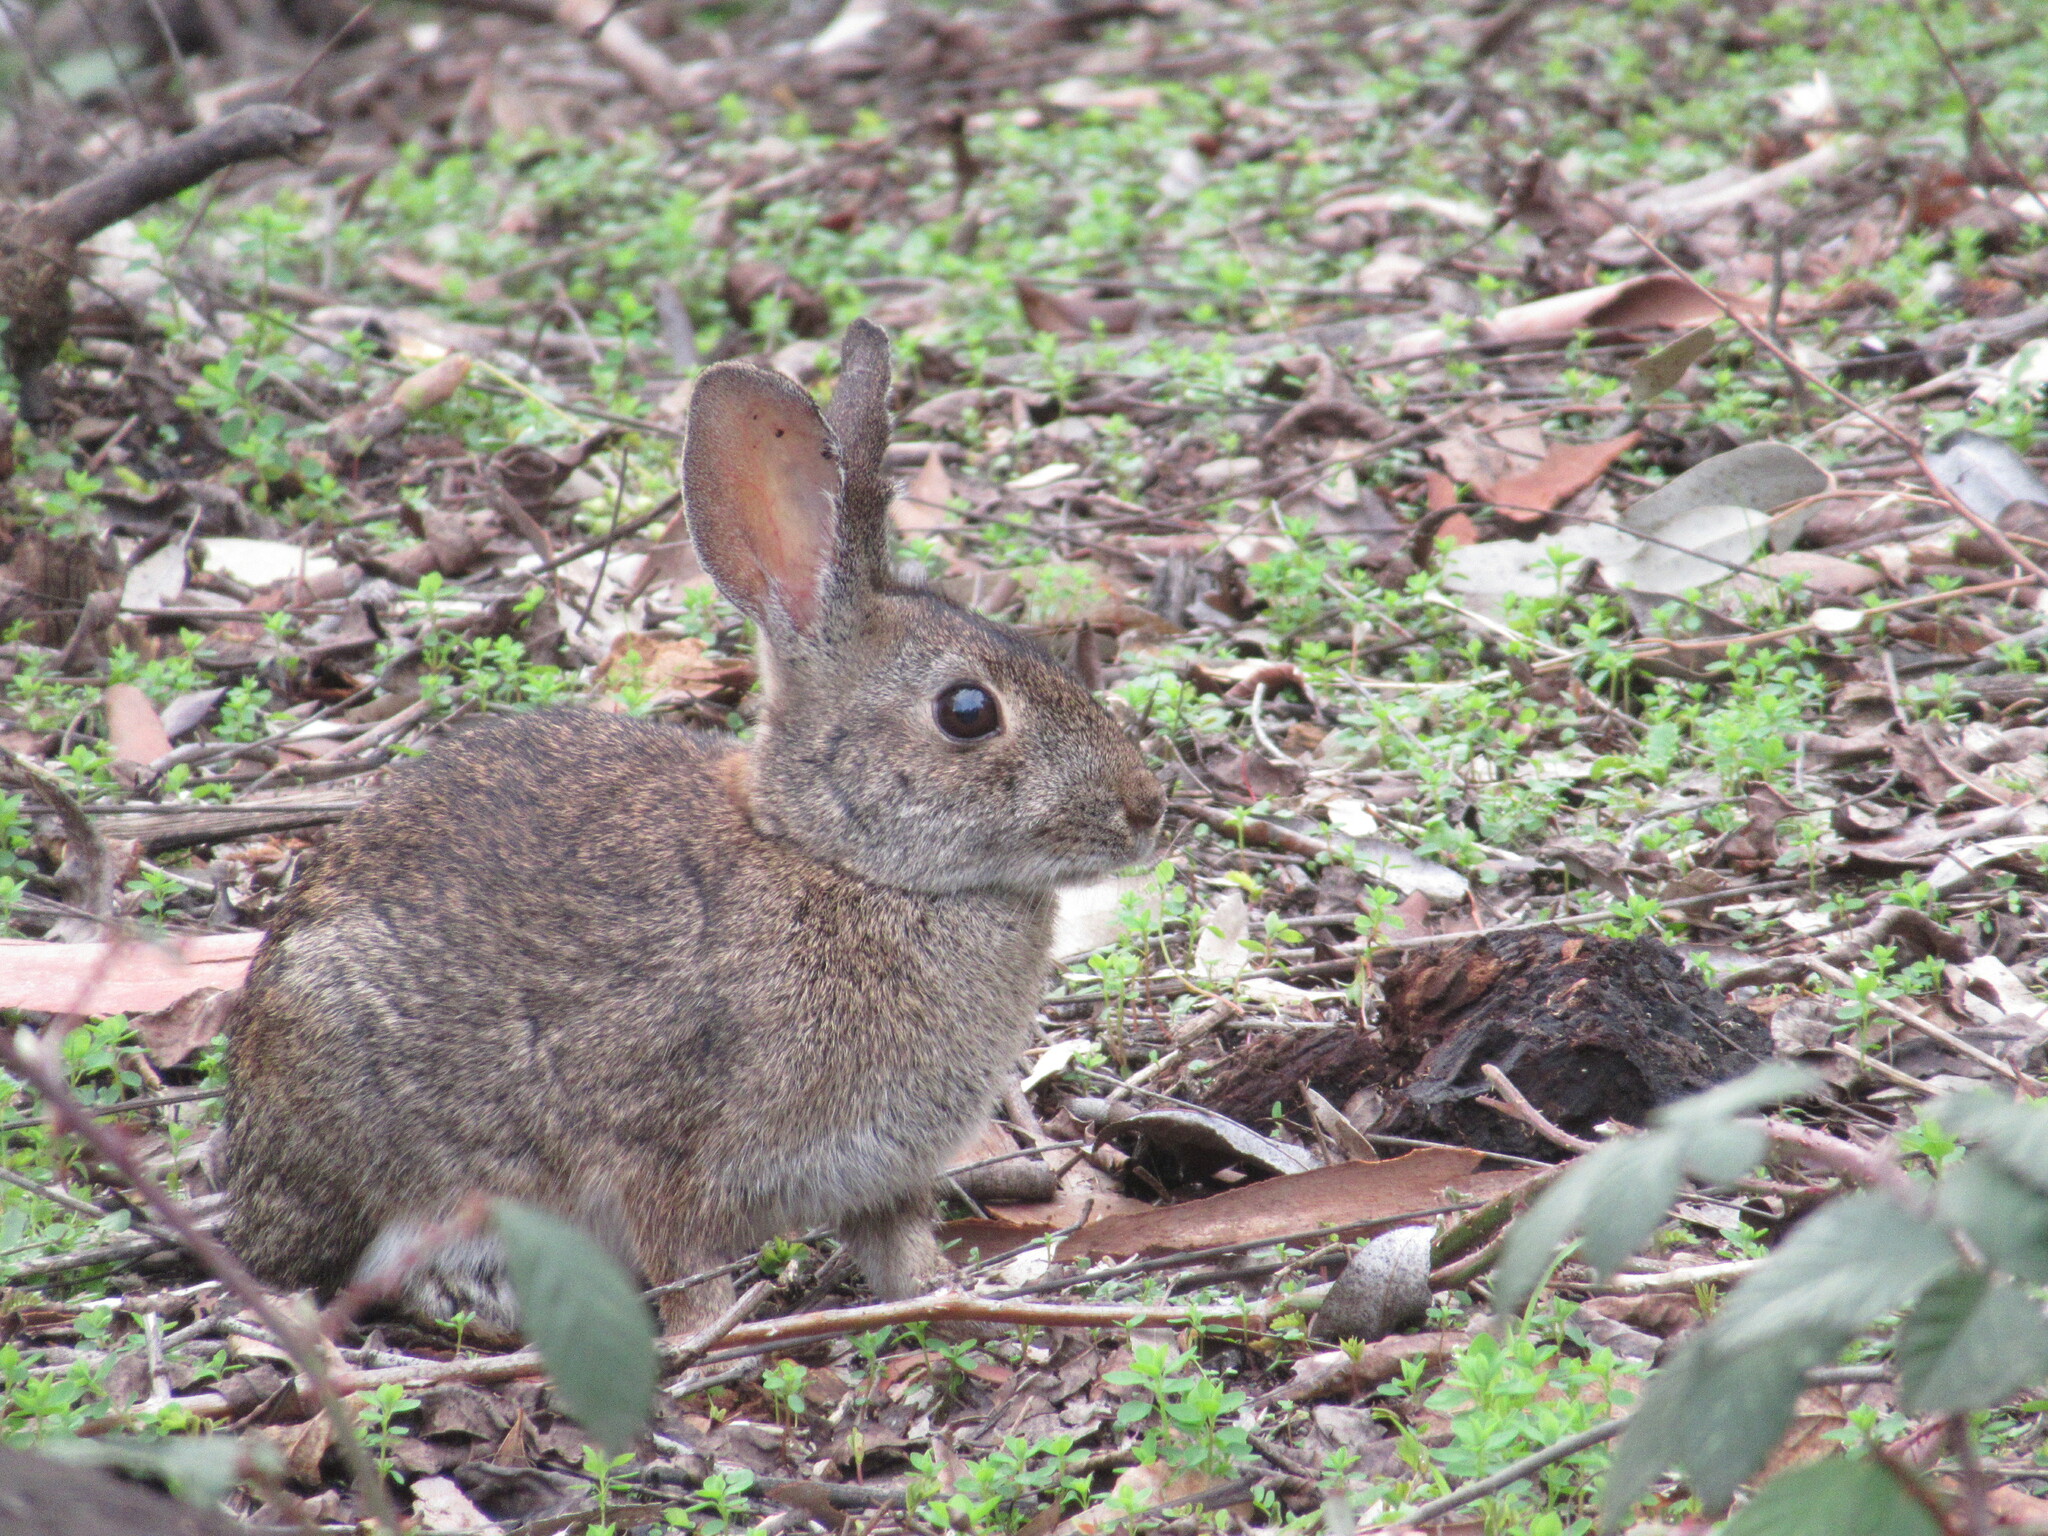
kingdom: Animalia
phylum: Chordata
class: Mammalia
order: Lagomorpha
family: Leporidae
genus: Sylvilagus
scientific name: Sylvilagus bachmani
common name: Brush rabbit
